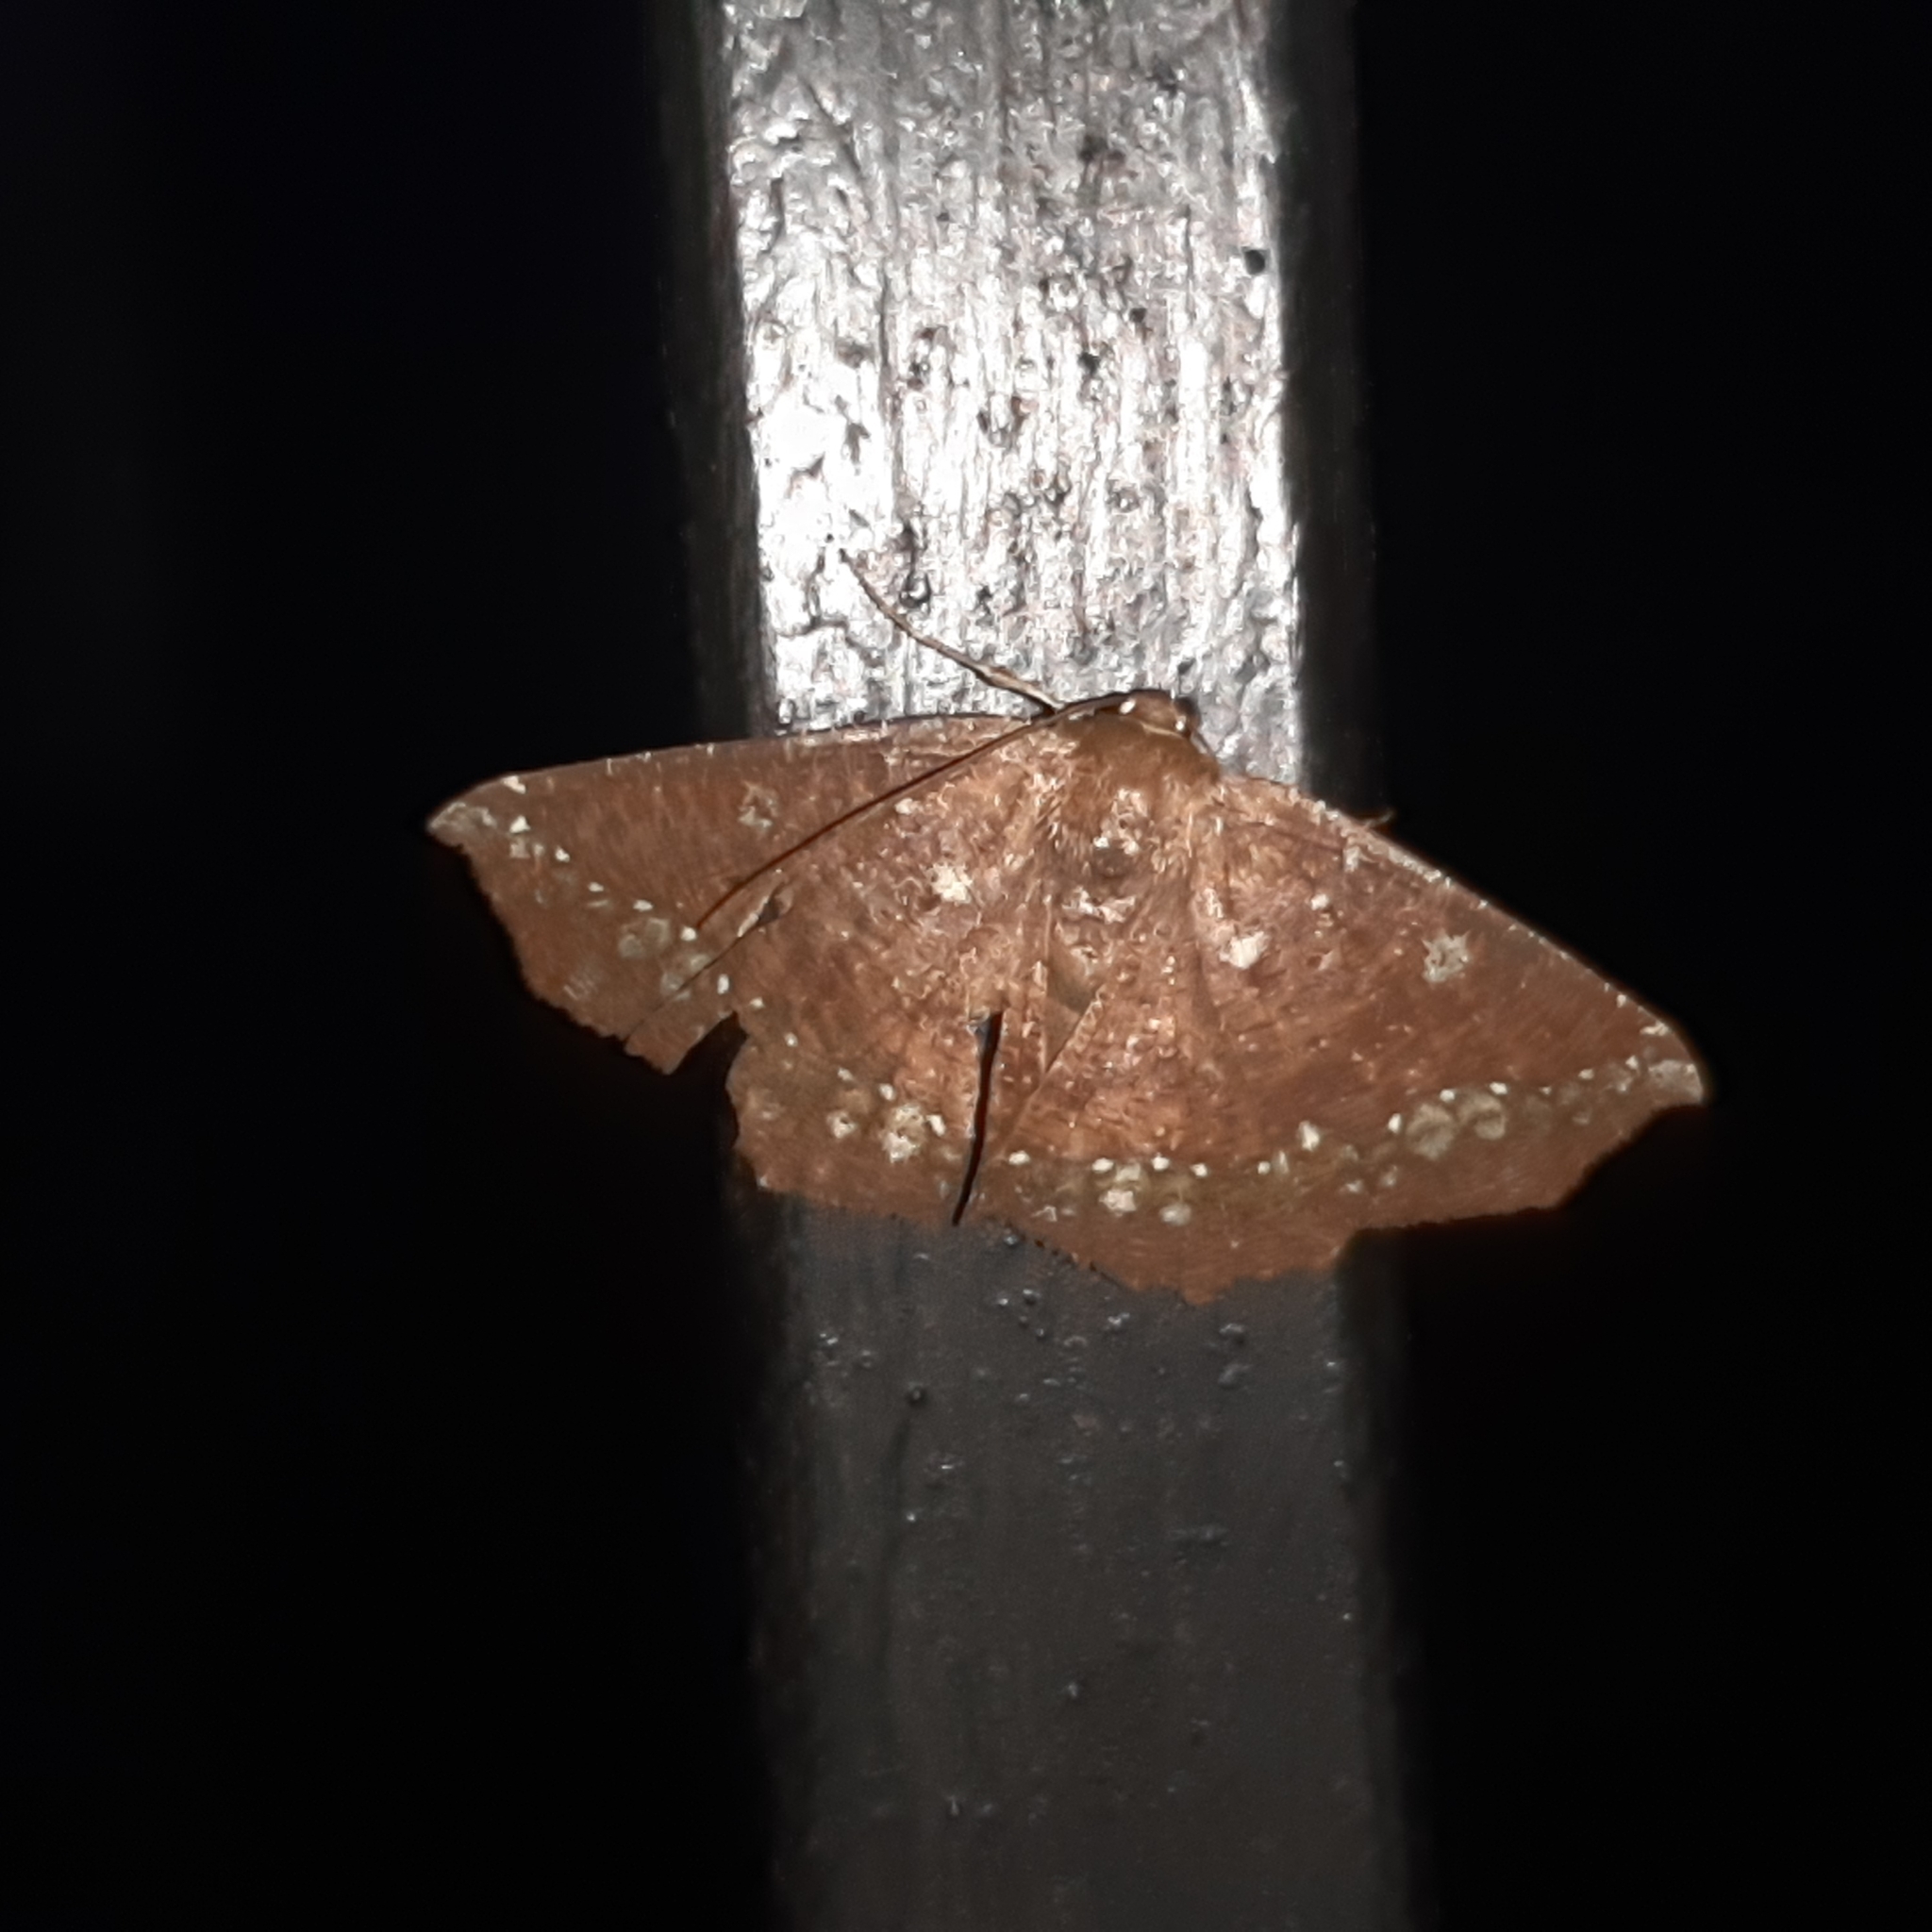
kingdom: Animalia
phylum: Arthropoda
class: Insecta
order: Lepidoptera
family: Geometridae
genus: Synnomos
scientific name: Synnomos firmamentaria
